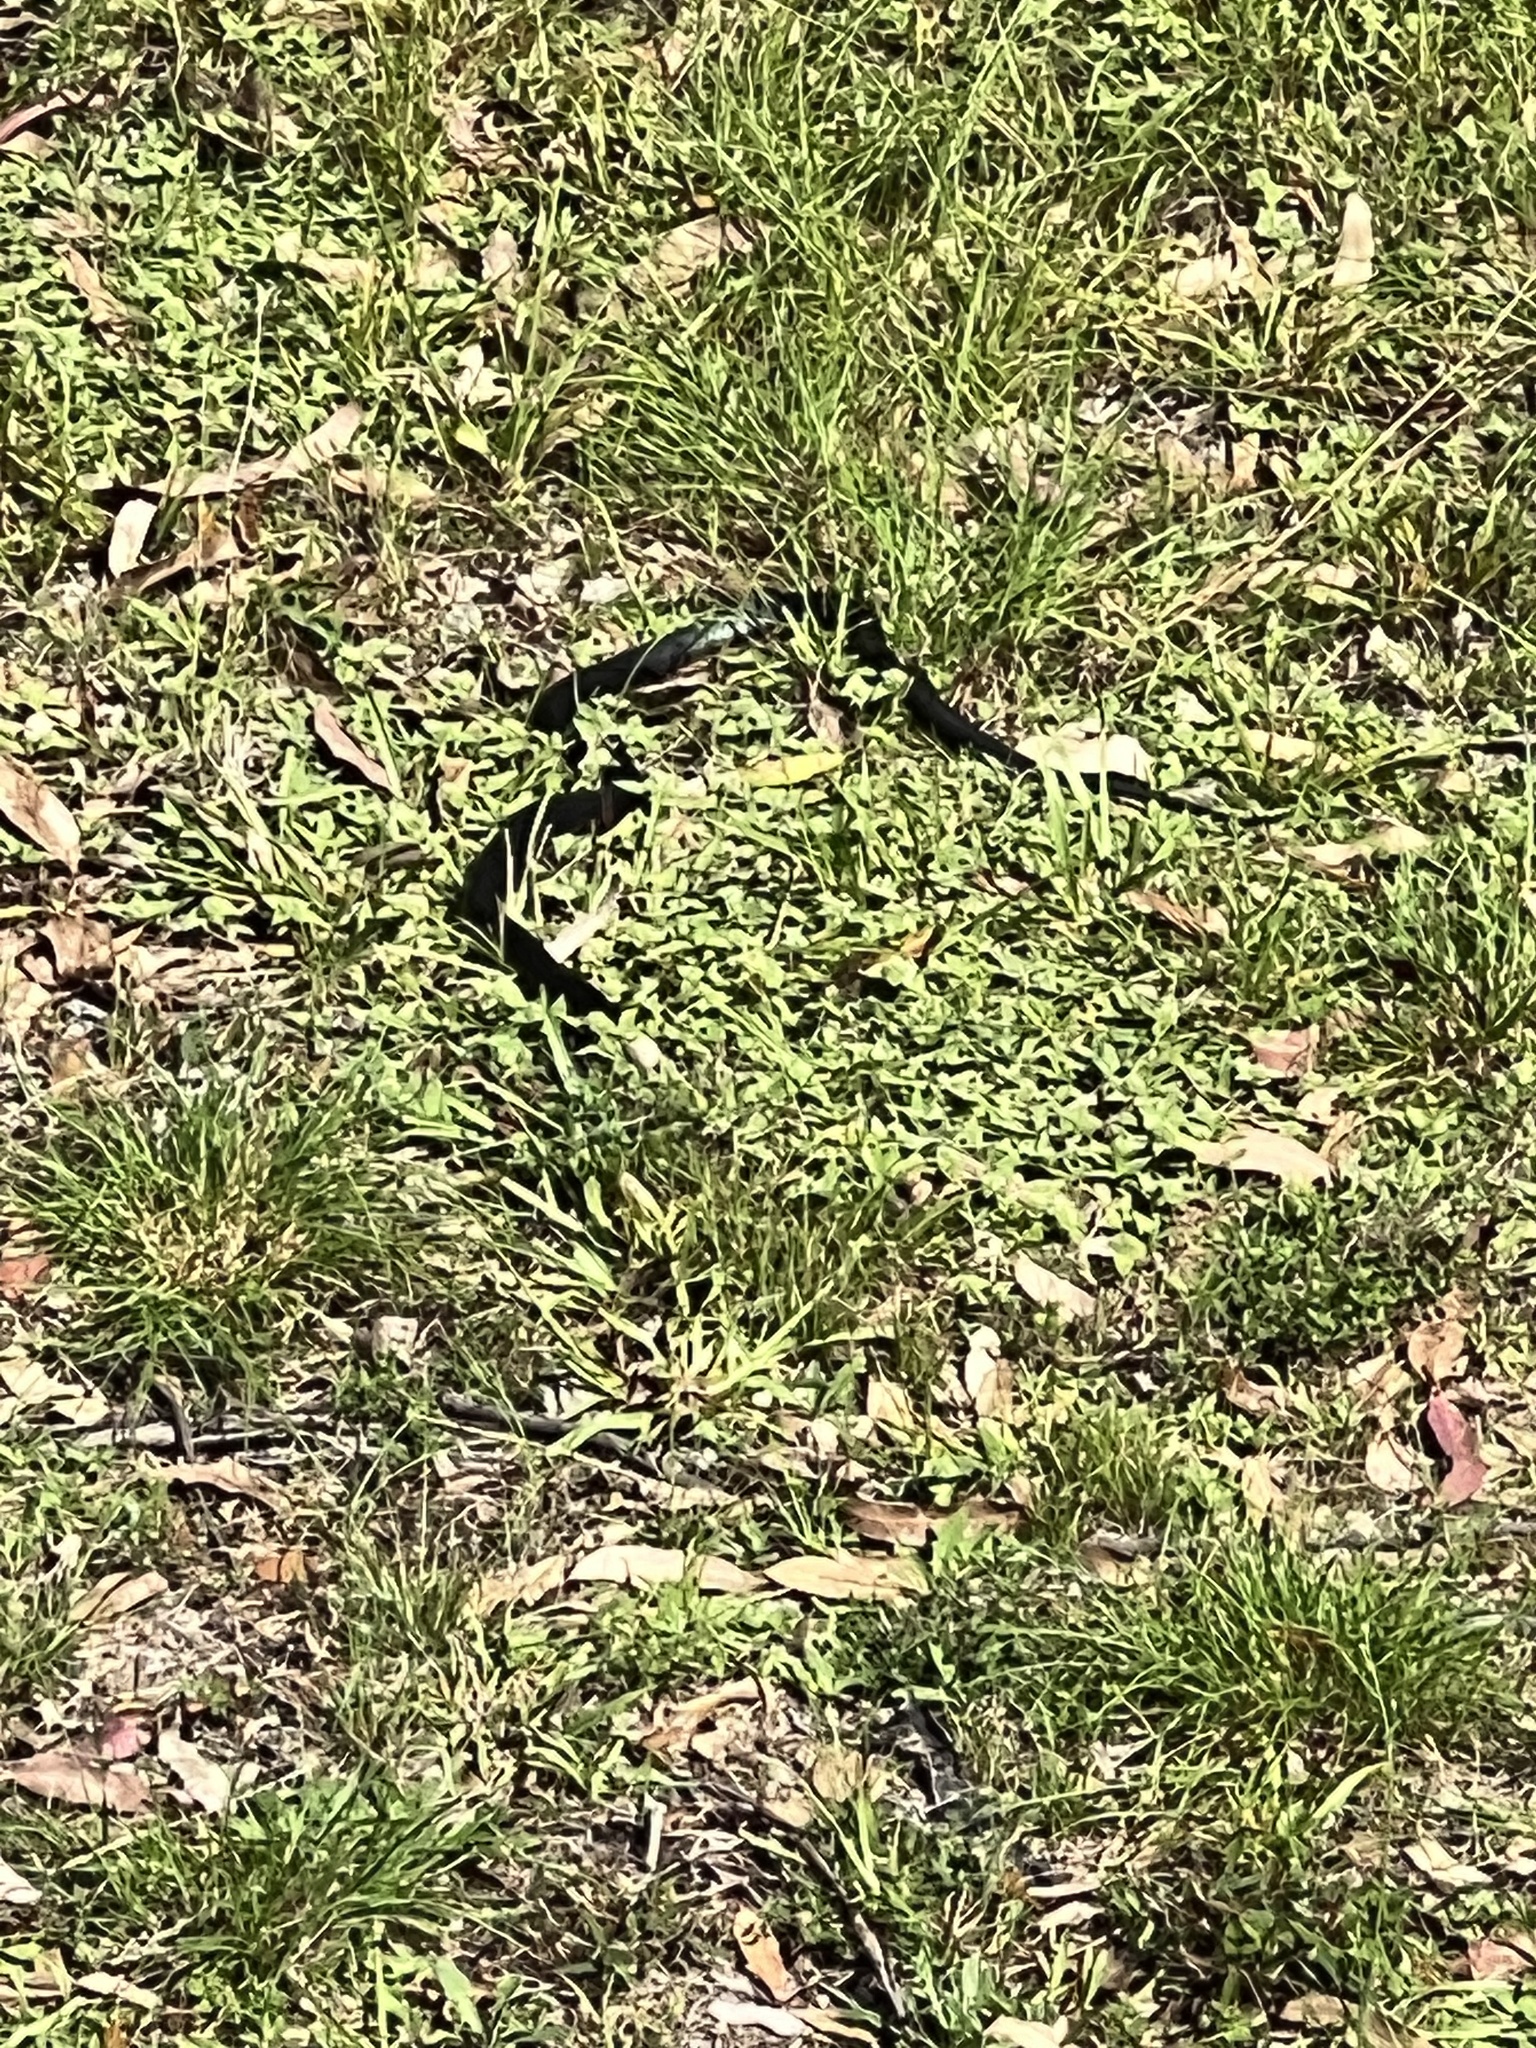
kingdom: Animalia
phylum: Chordata
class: Squamata
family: Elapidae
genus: Pseudechis
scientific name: Pseudechis porphyriacus
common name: Australian black snake
